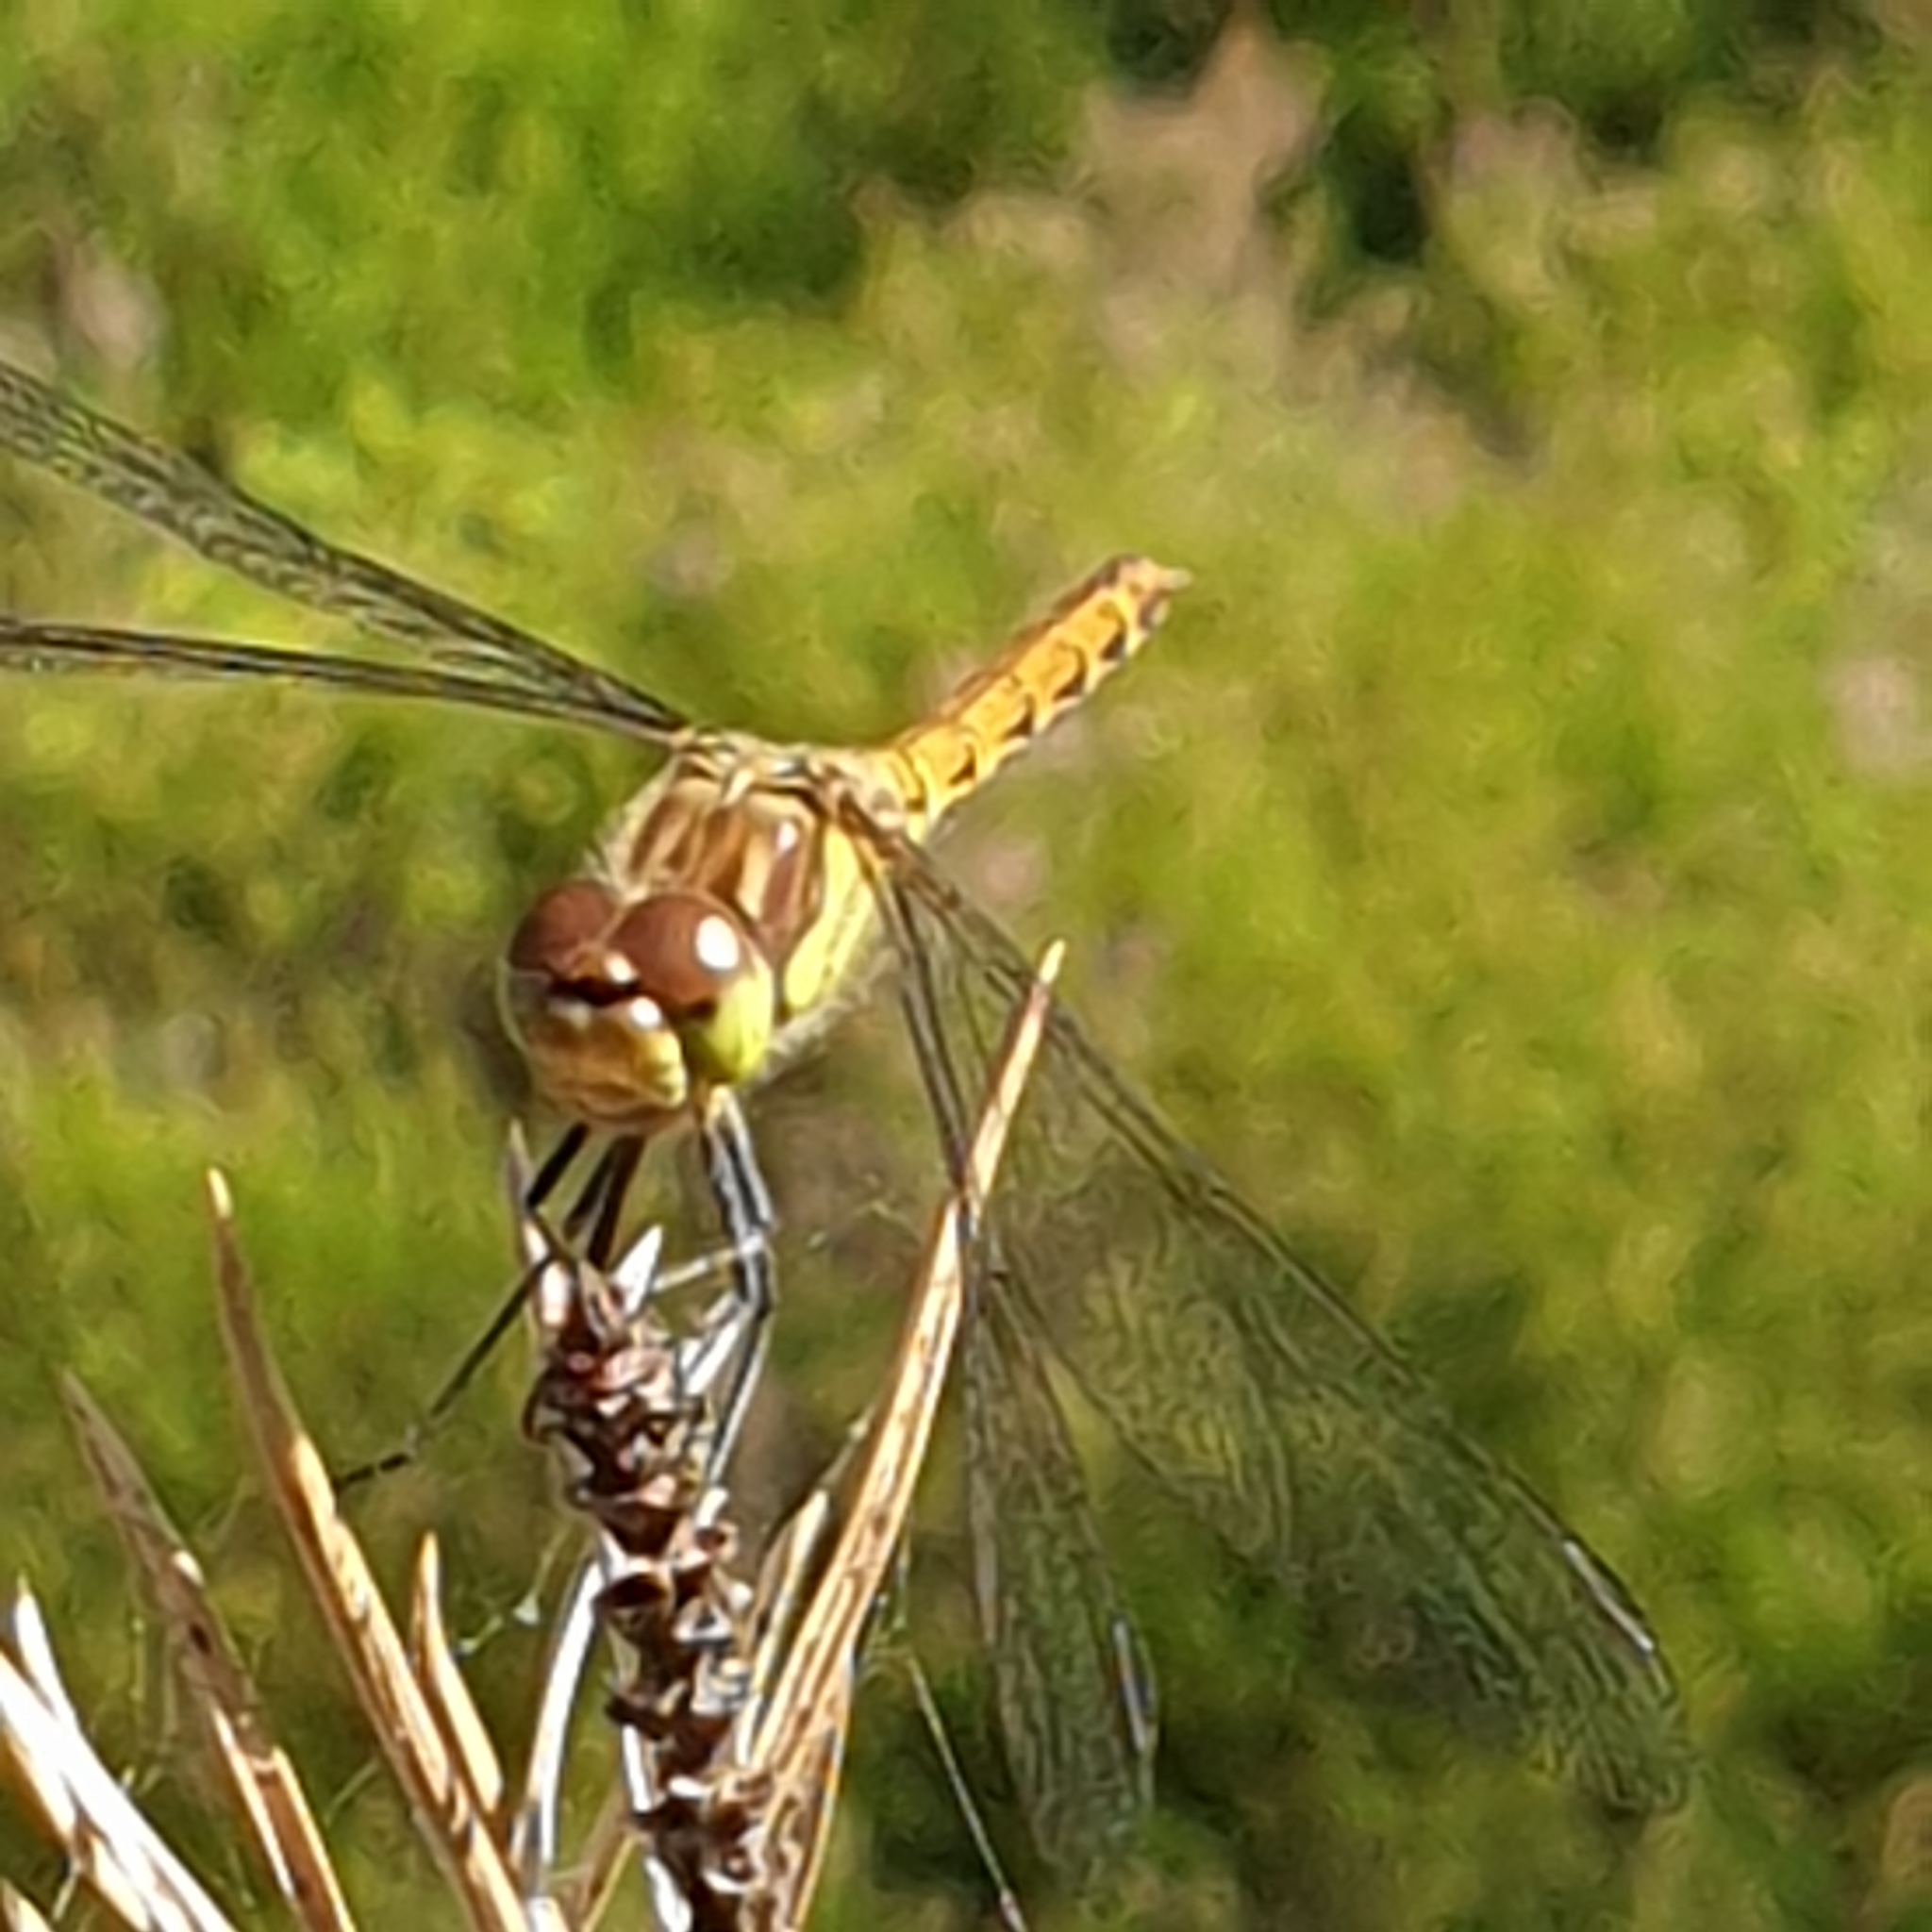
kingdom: Animalia
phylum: Arthropoda
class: Insecta
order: Odonata
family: Libellulidae
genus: Sympetrum
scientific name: Sympetrum striolatum
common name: Common darter
